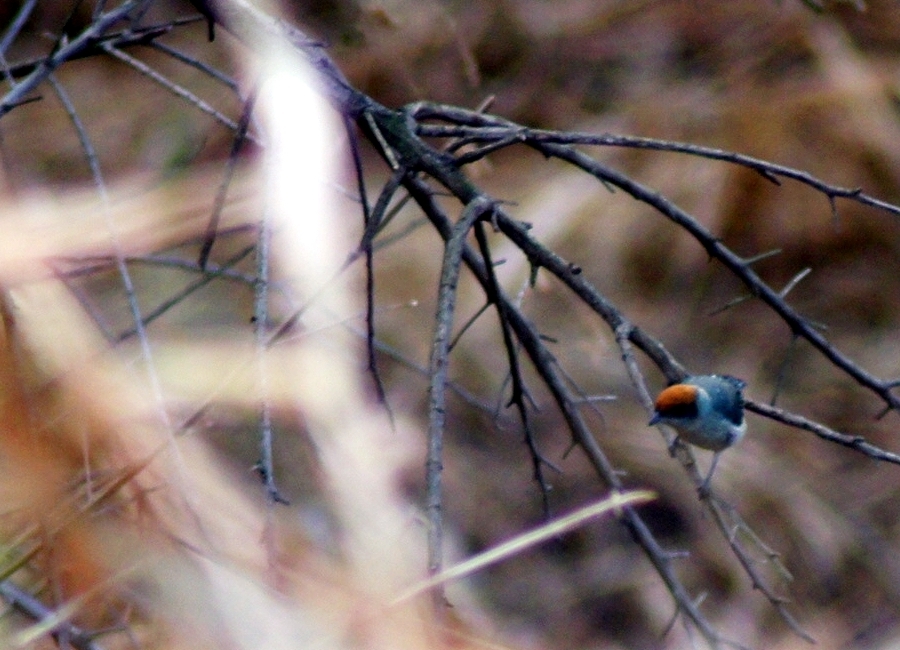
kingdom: Animalia
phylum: Chordata
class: Aves
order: Passeriformes
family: Thraupidae
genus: Stilpnia
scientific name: Stilpnia vitriolina
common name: Scrub tanager
